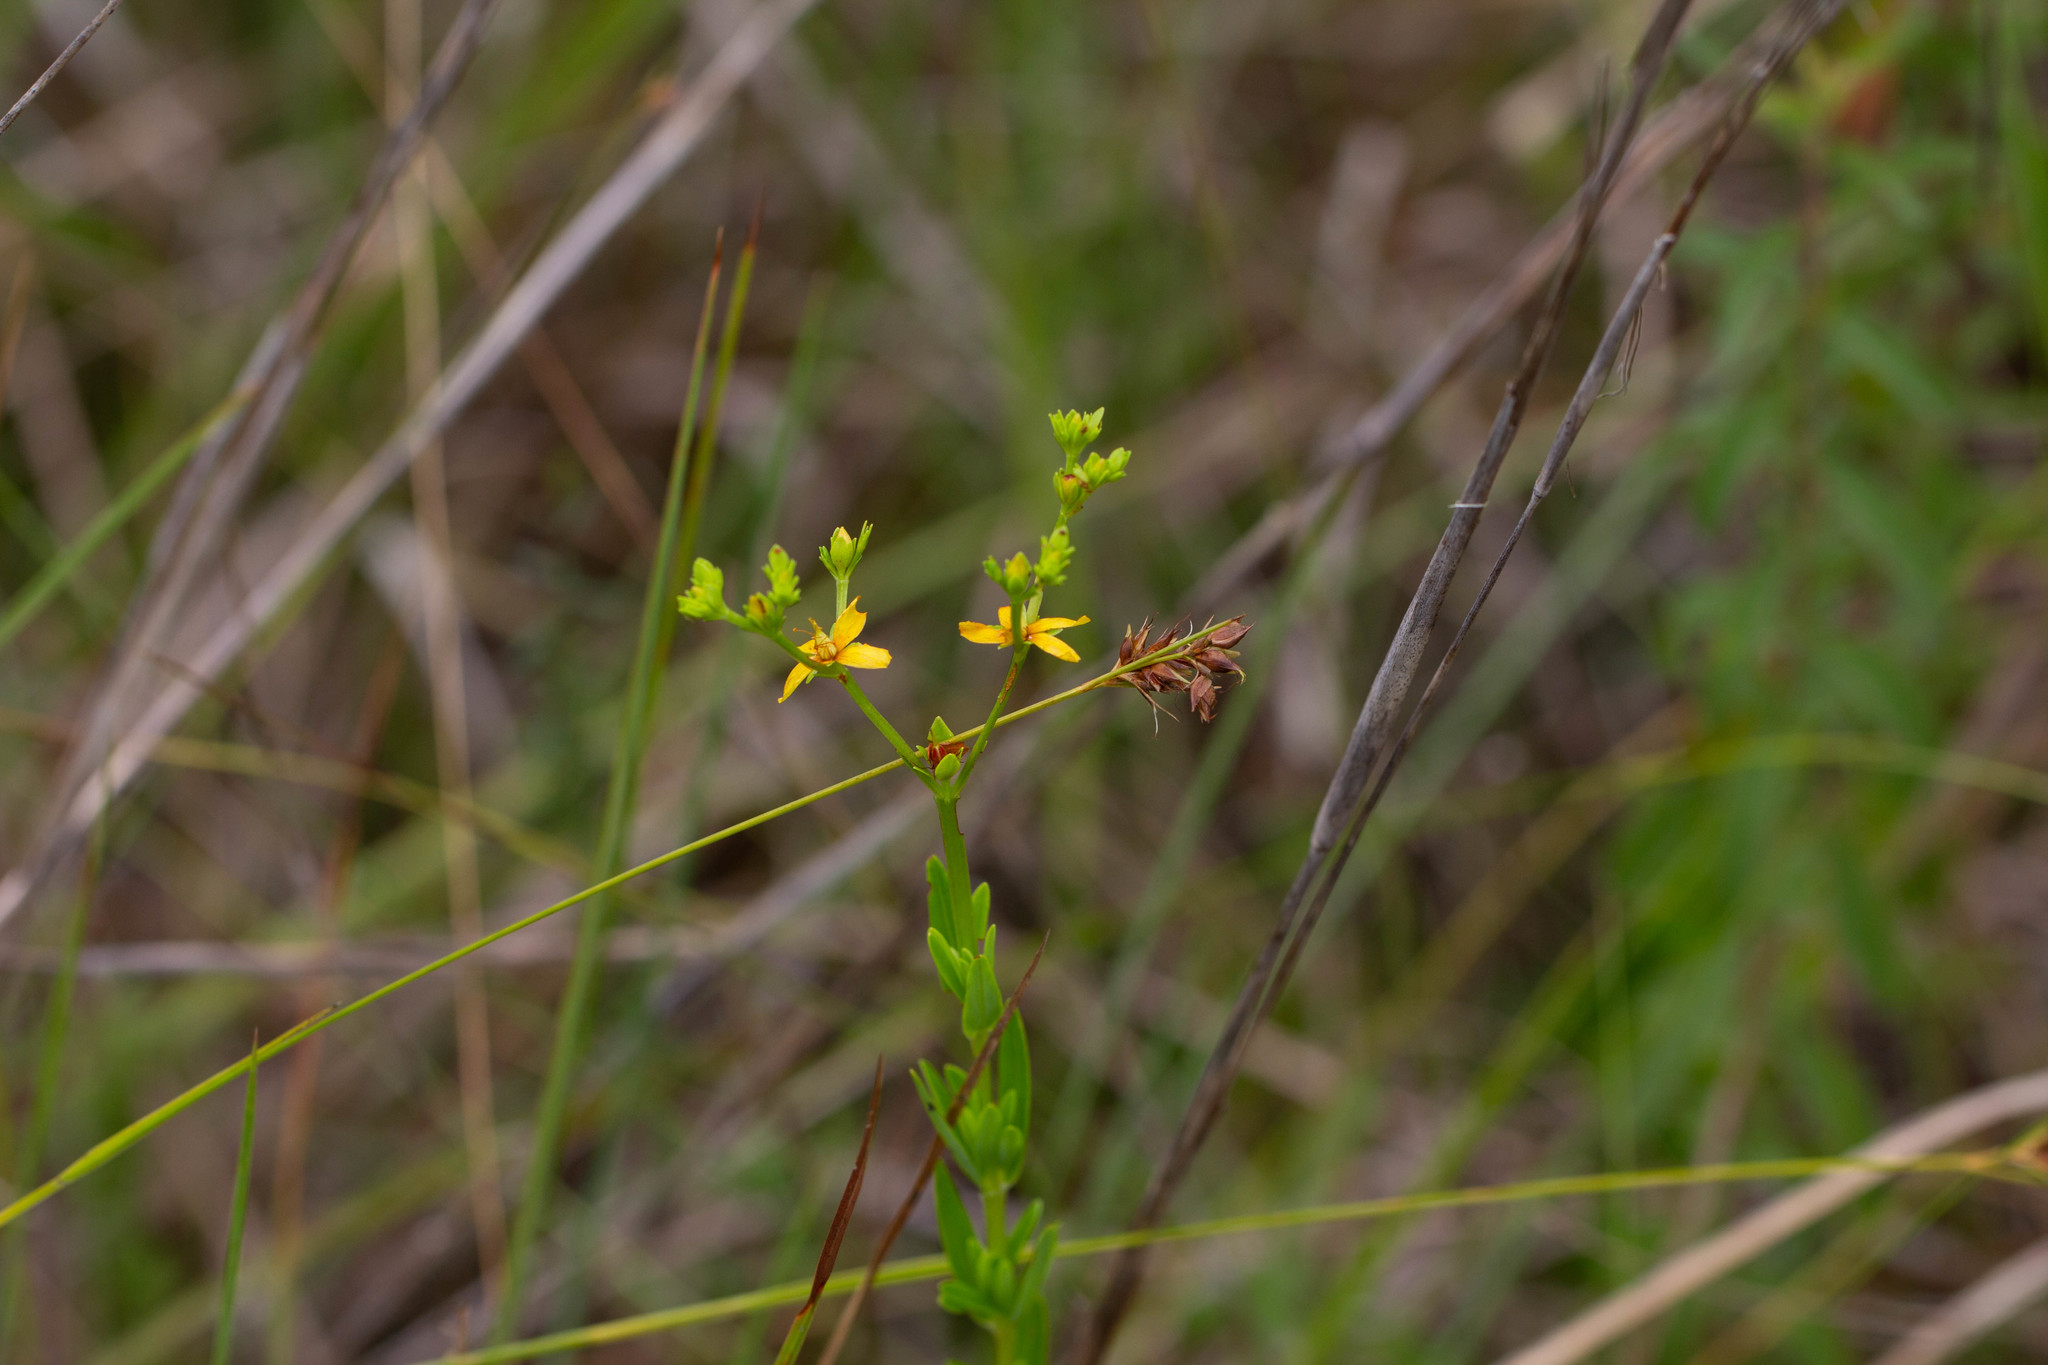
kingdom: Plantae
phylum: Tracheophyta
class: Magnoliopsida
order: Malpighiales
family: Hypericaceae
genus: Hypericum
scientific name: Hypericum cistifolium
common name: Round-pod st. john's-wort
